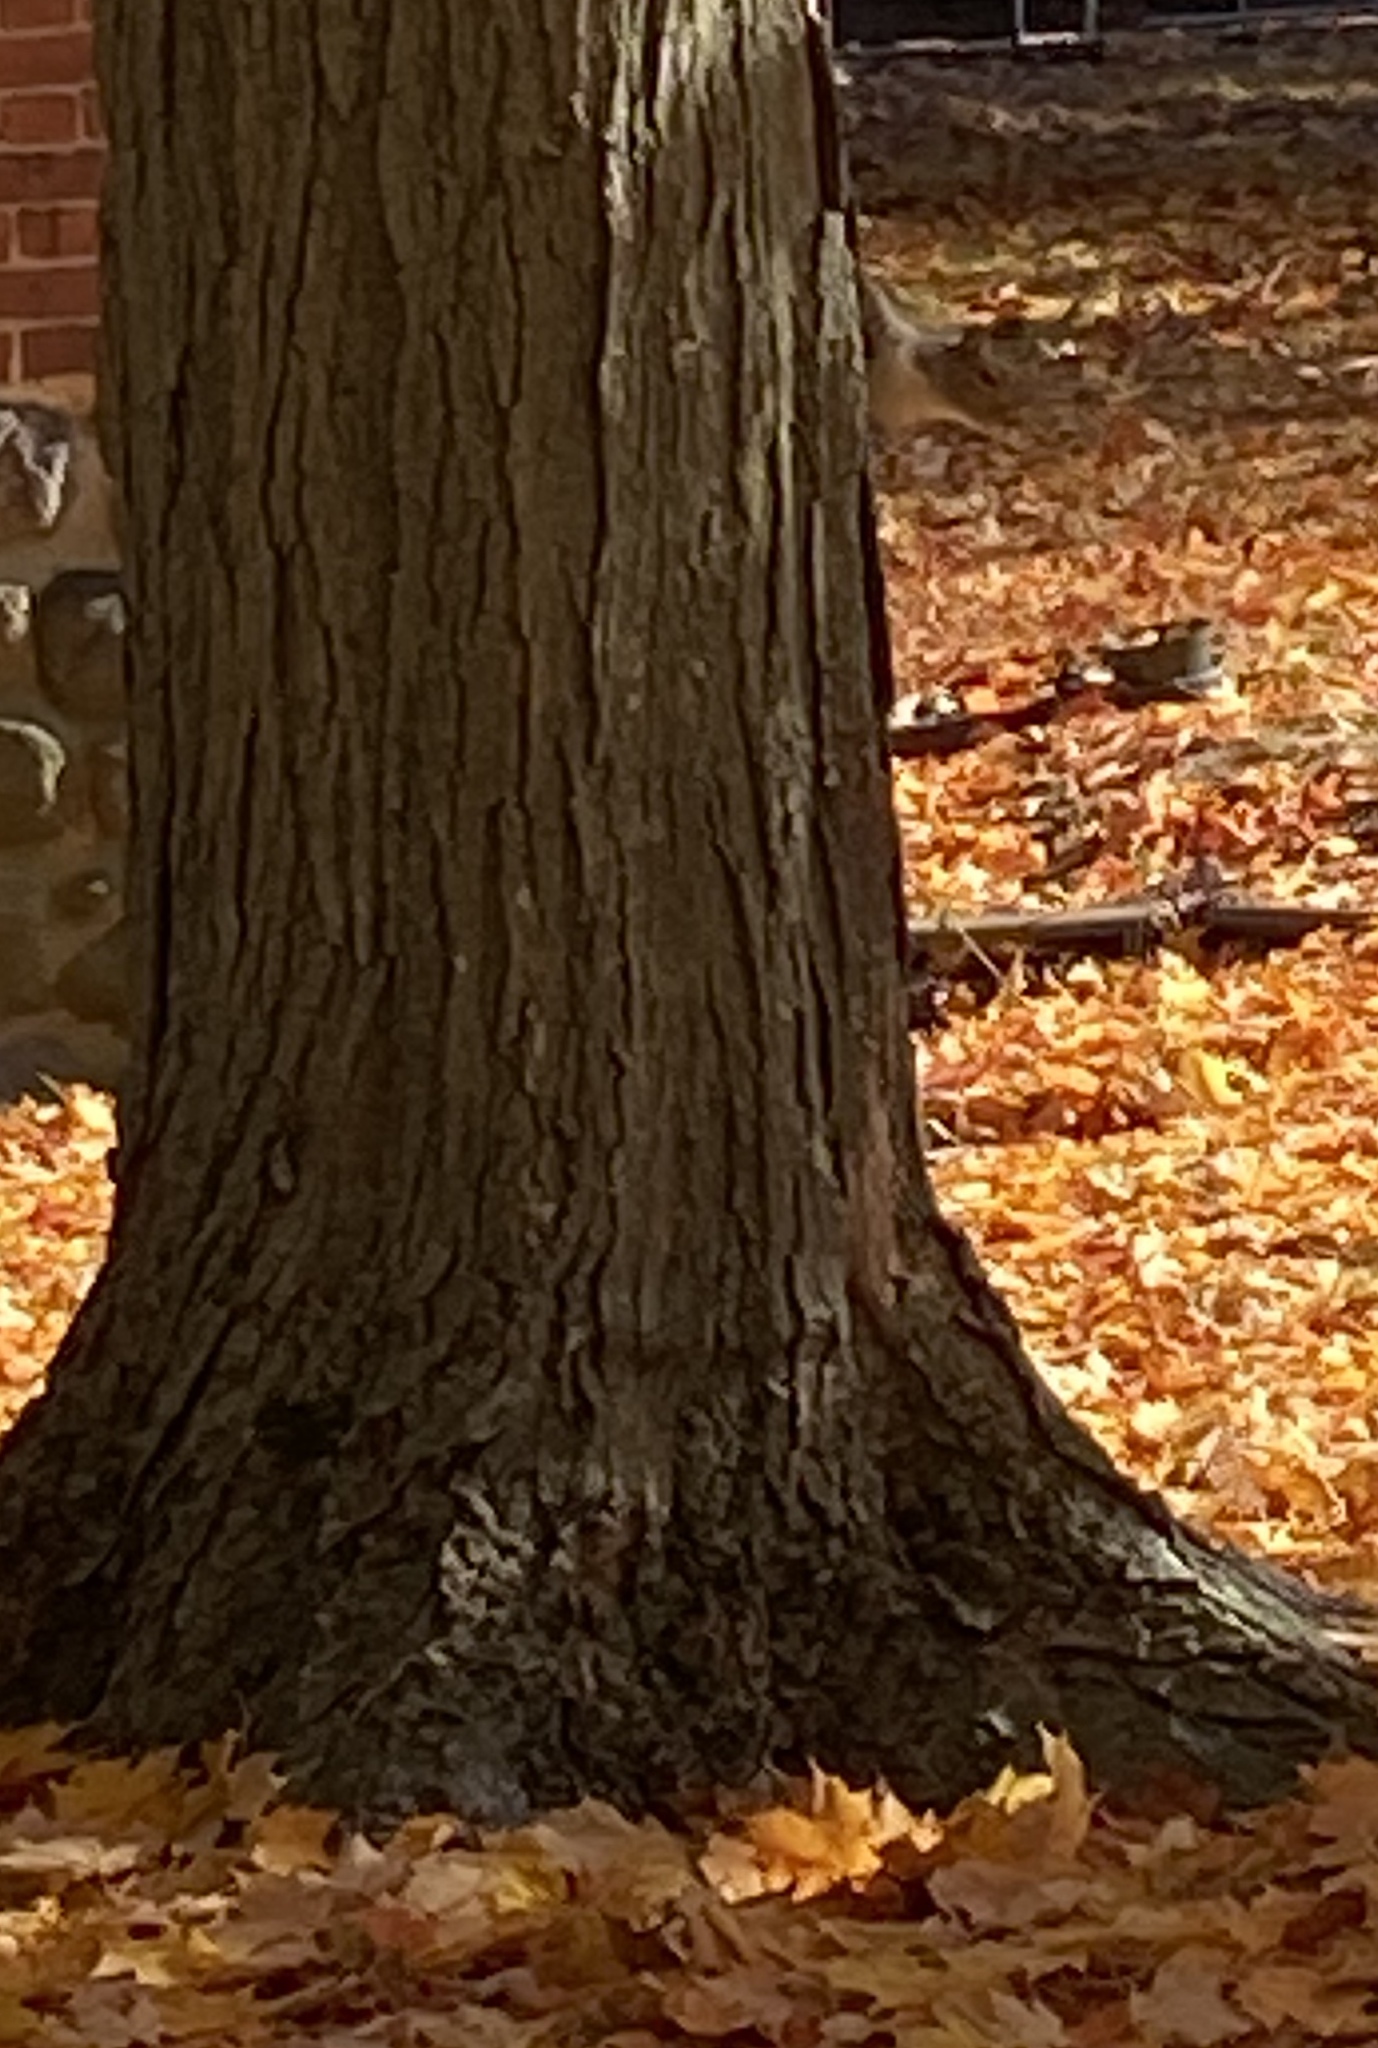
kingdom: Animalia
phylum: Chordata
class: Mammalia
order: Rodentia
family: Sciuridae
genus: Sciurus
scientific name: Sciurus carolinensis
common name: Eastern gray squirrel
